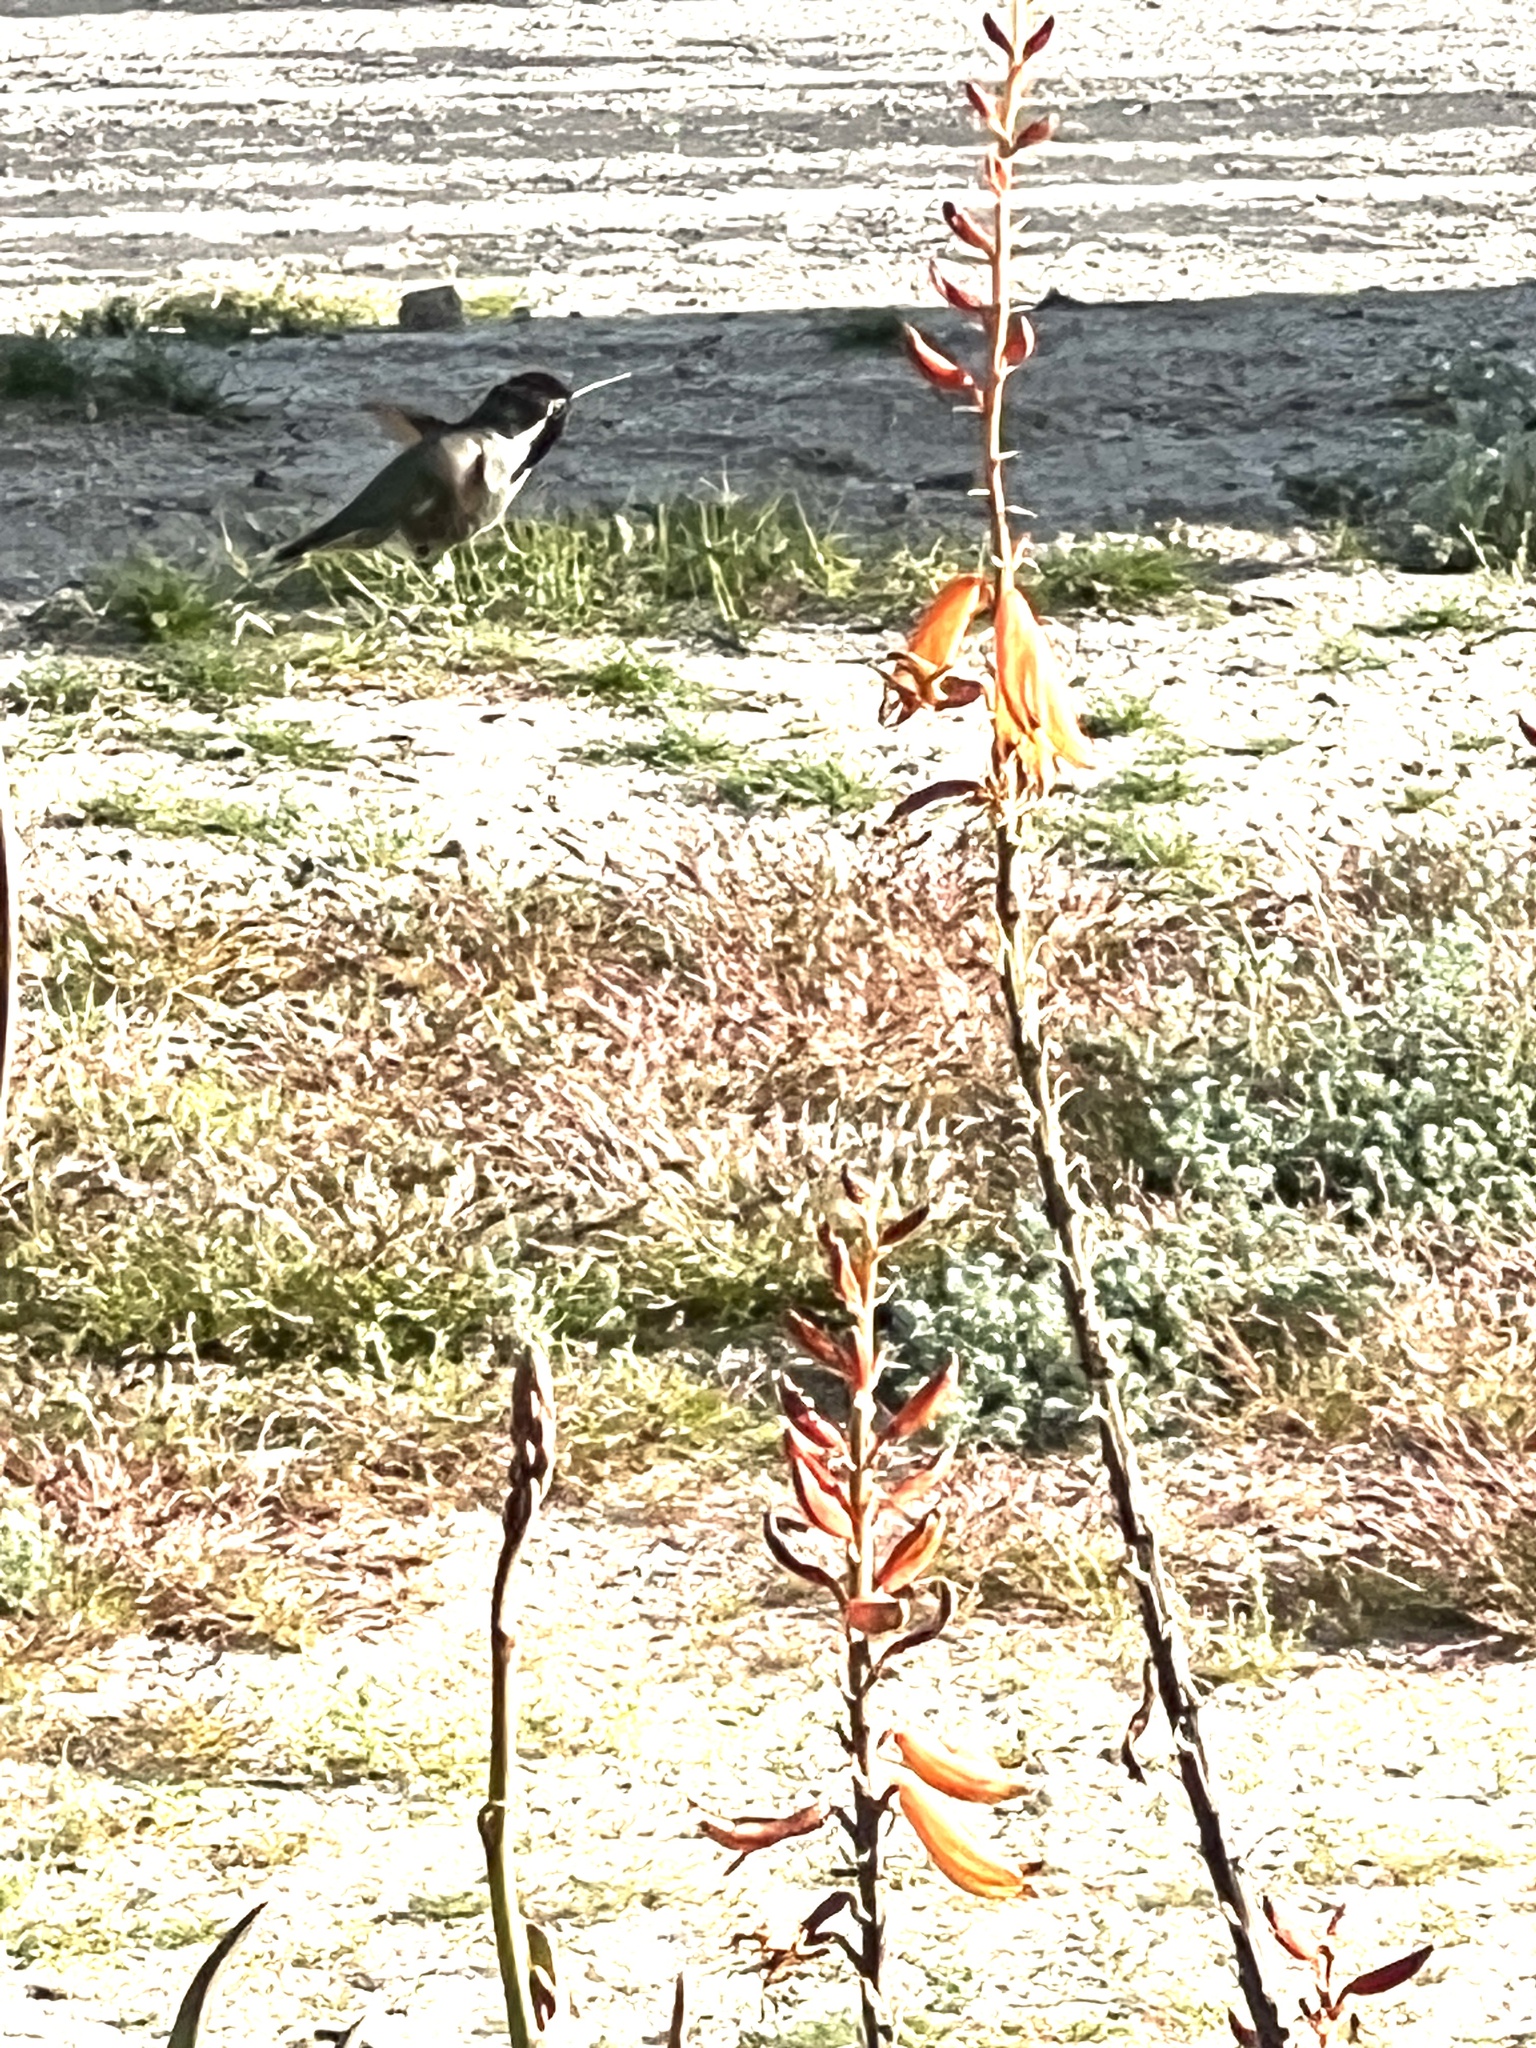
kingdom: Animalia
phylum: Chordata
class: Aves
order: Apodiformes
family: Trochilidae
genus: Calypte
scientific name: Calypte costae
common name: Costa's hummingbird
